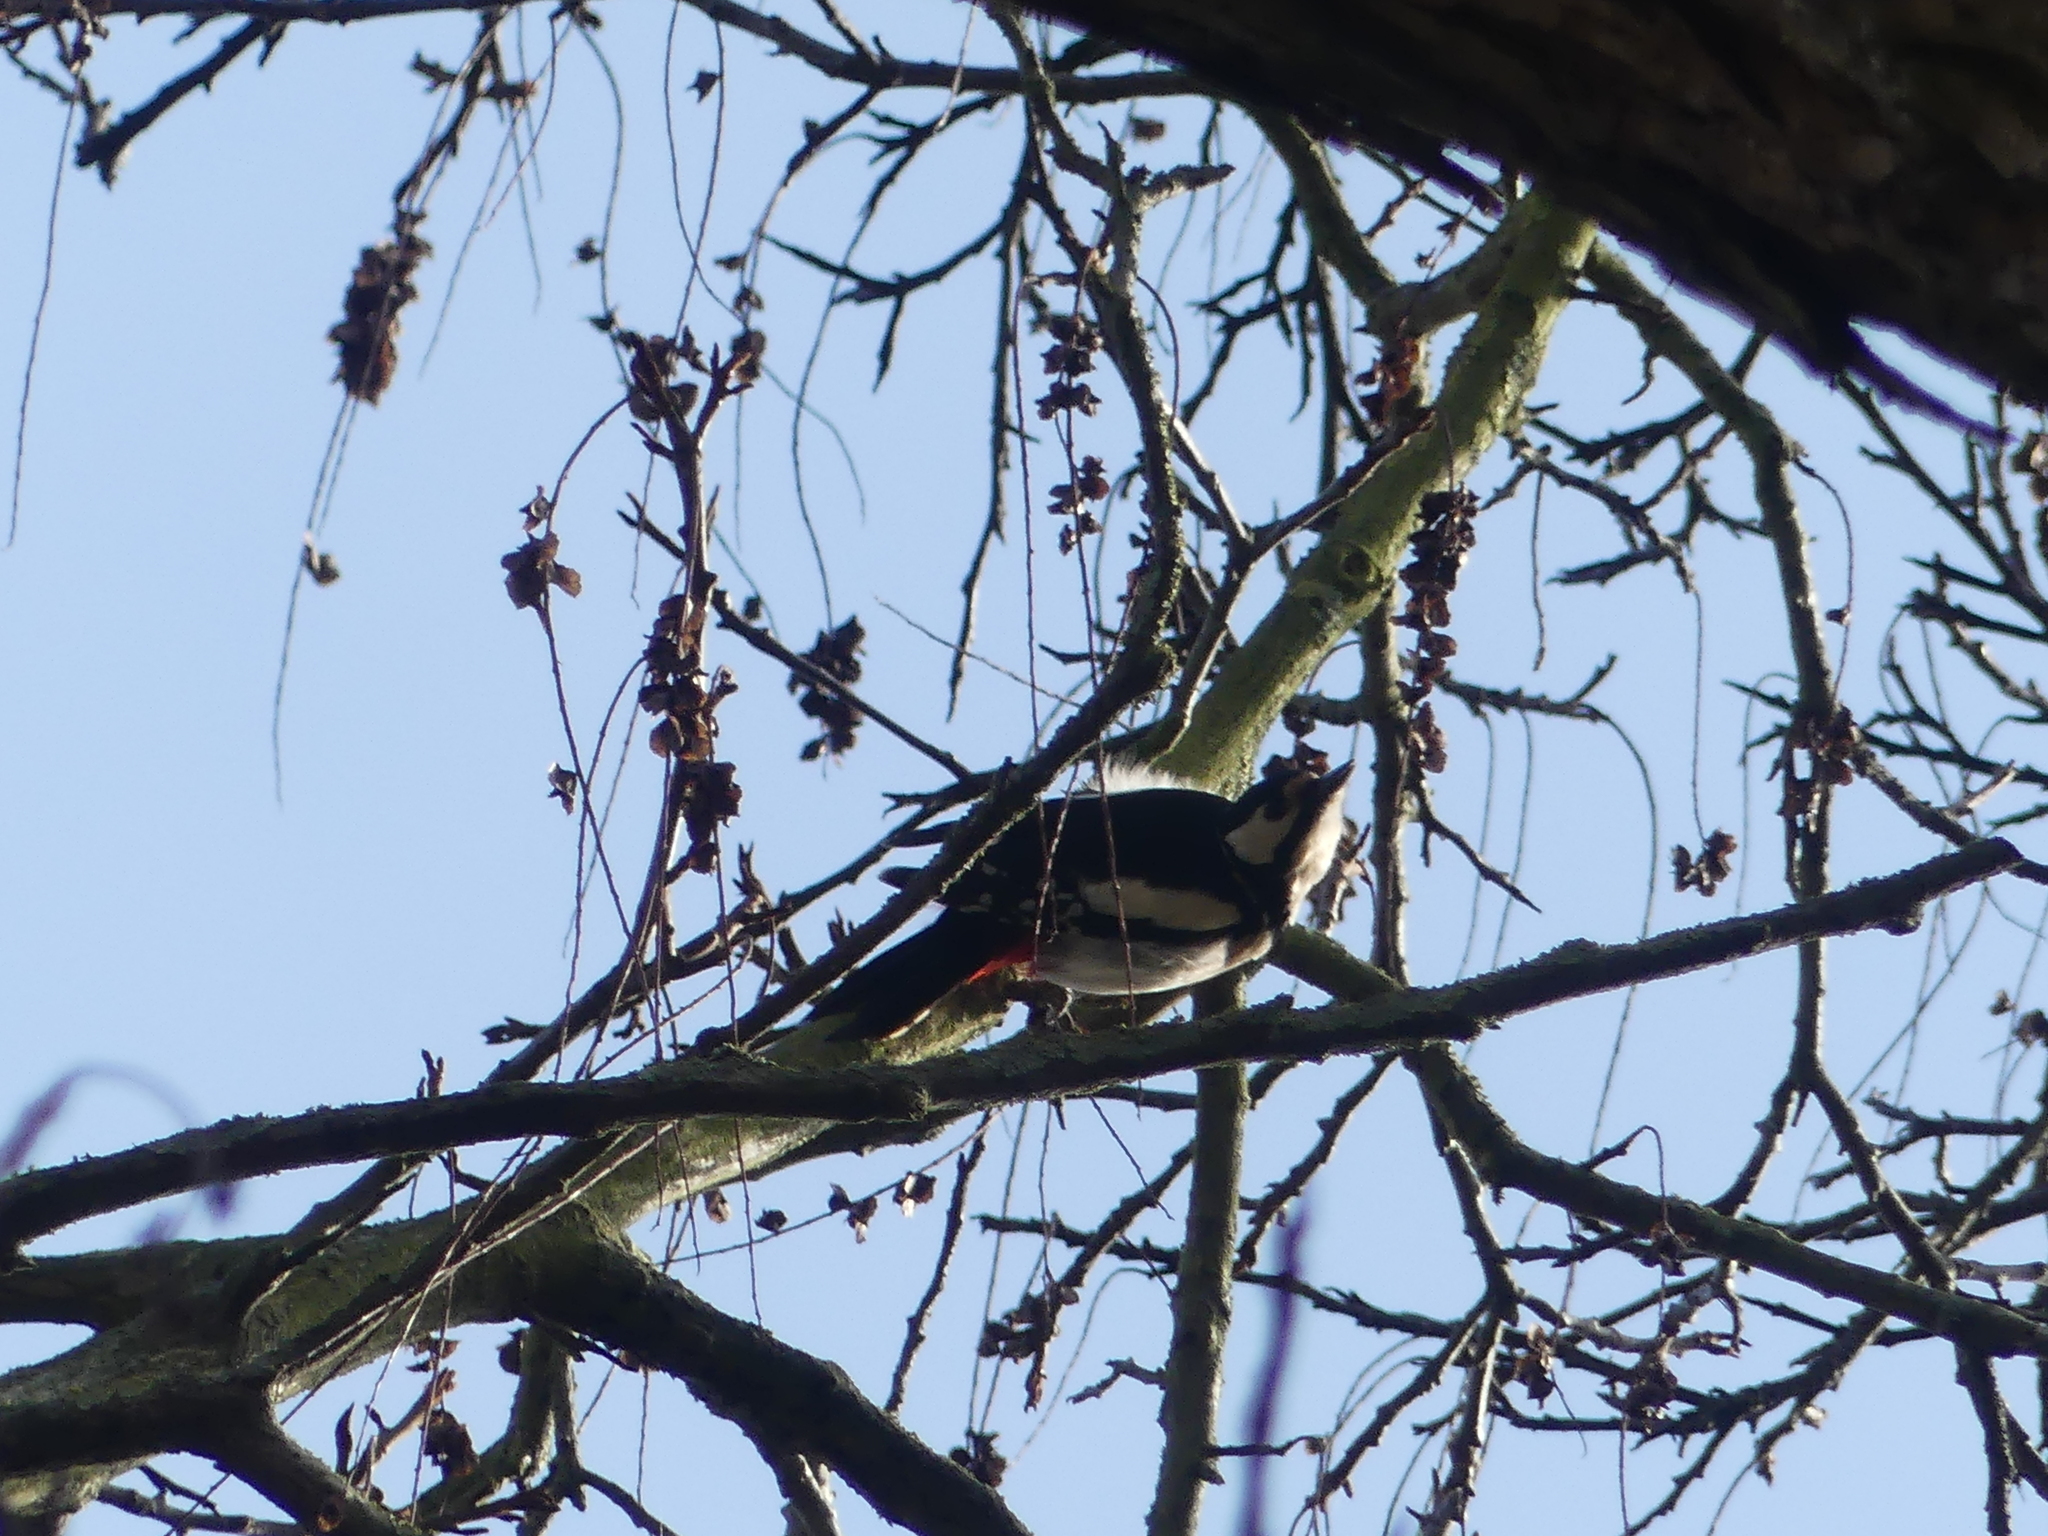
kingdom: Animalia
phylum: Chordata
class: Aves
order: Piciformes
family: Picidae
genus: Dendrocopos
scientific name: Dendrocopos major
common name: Great spotted woodpecker
